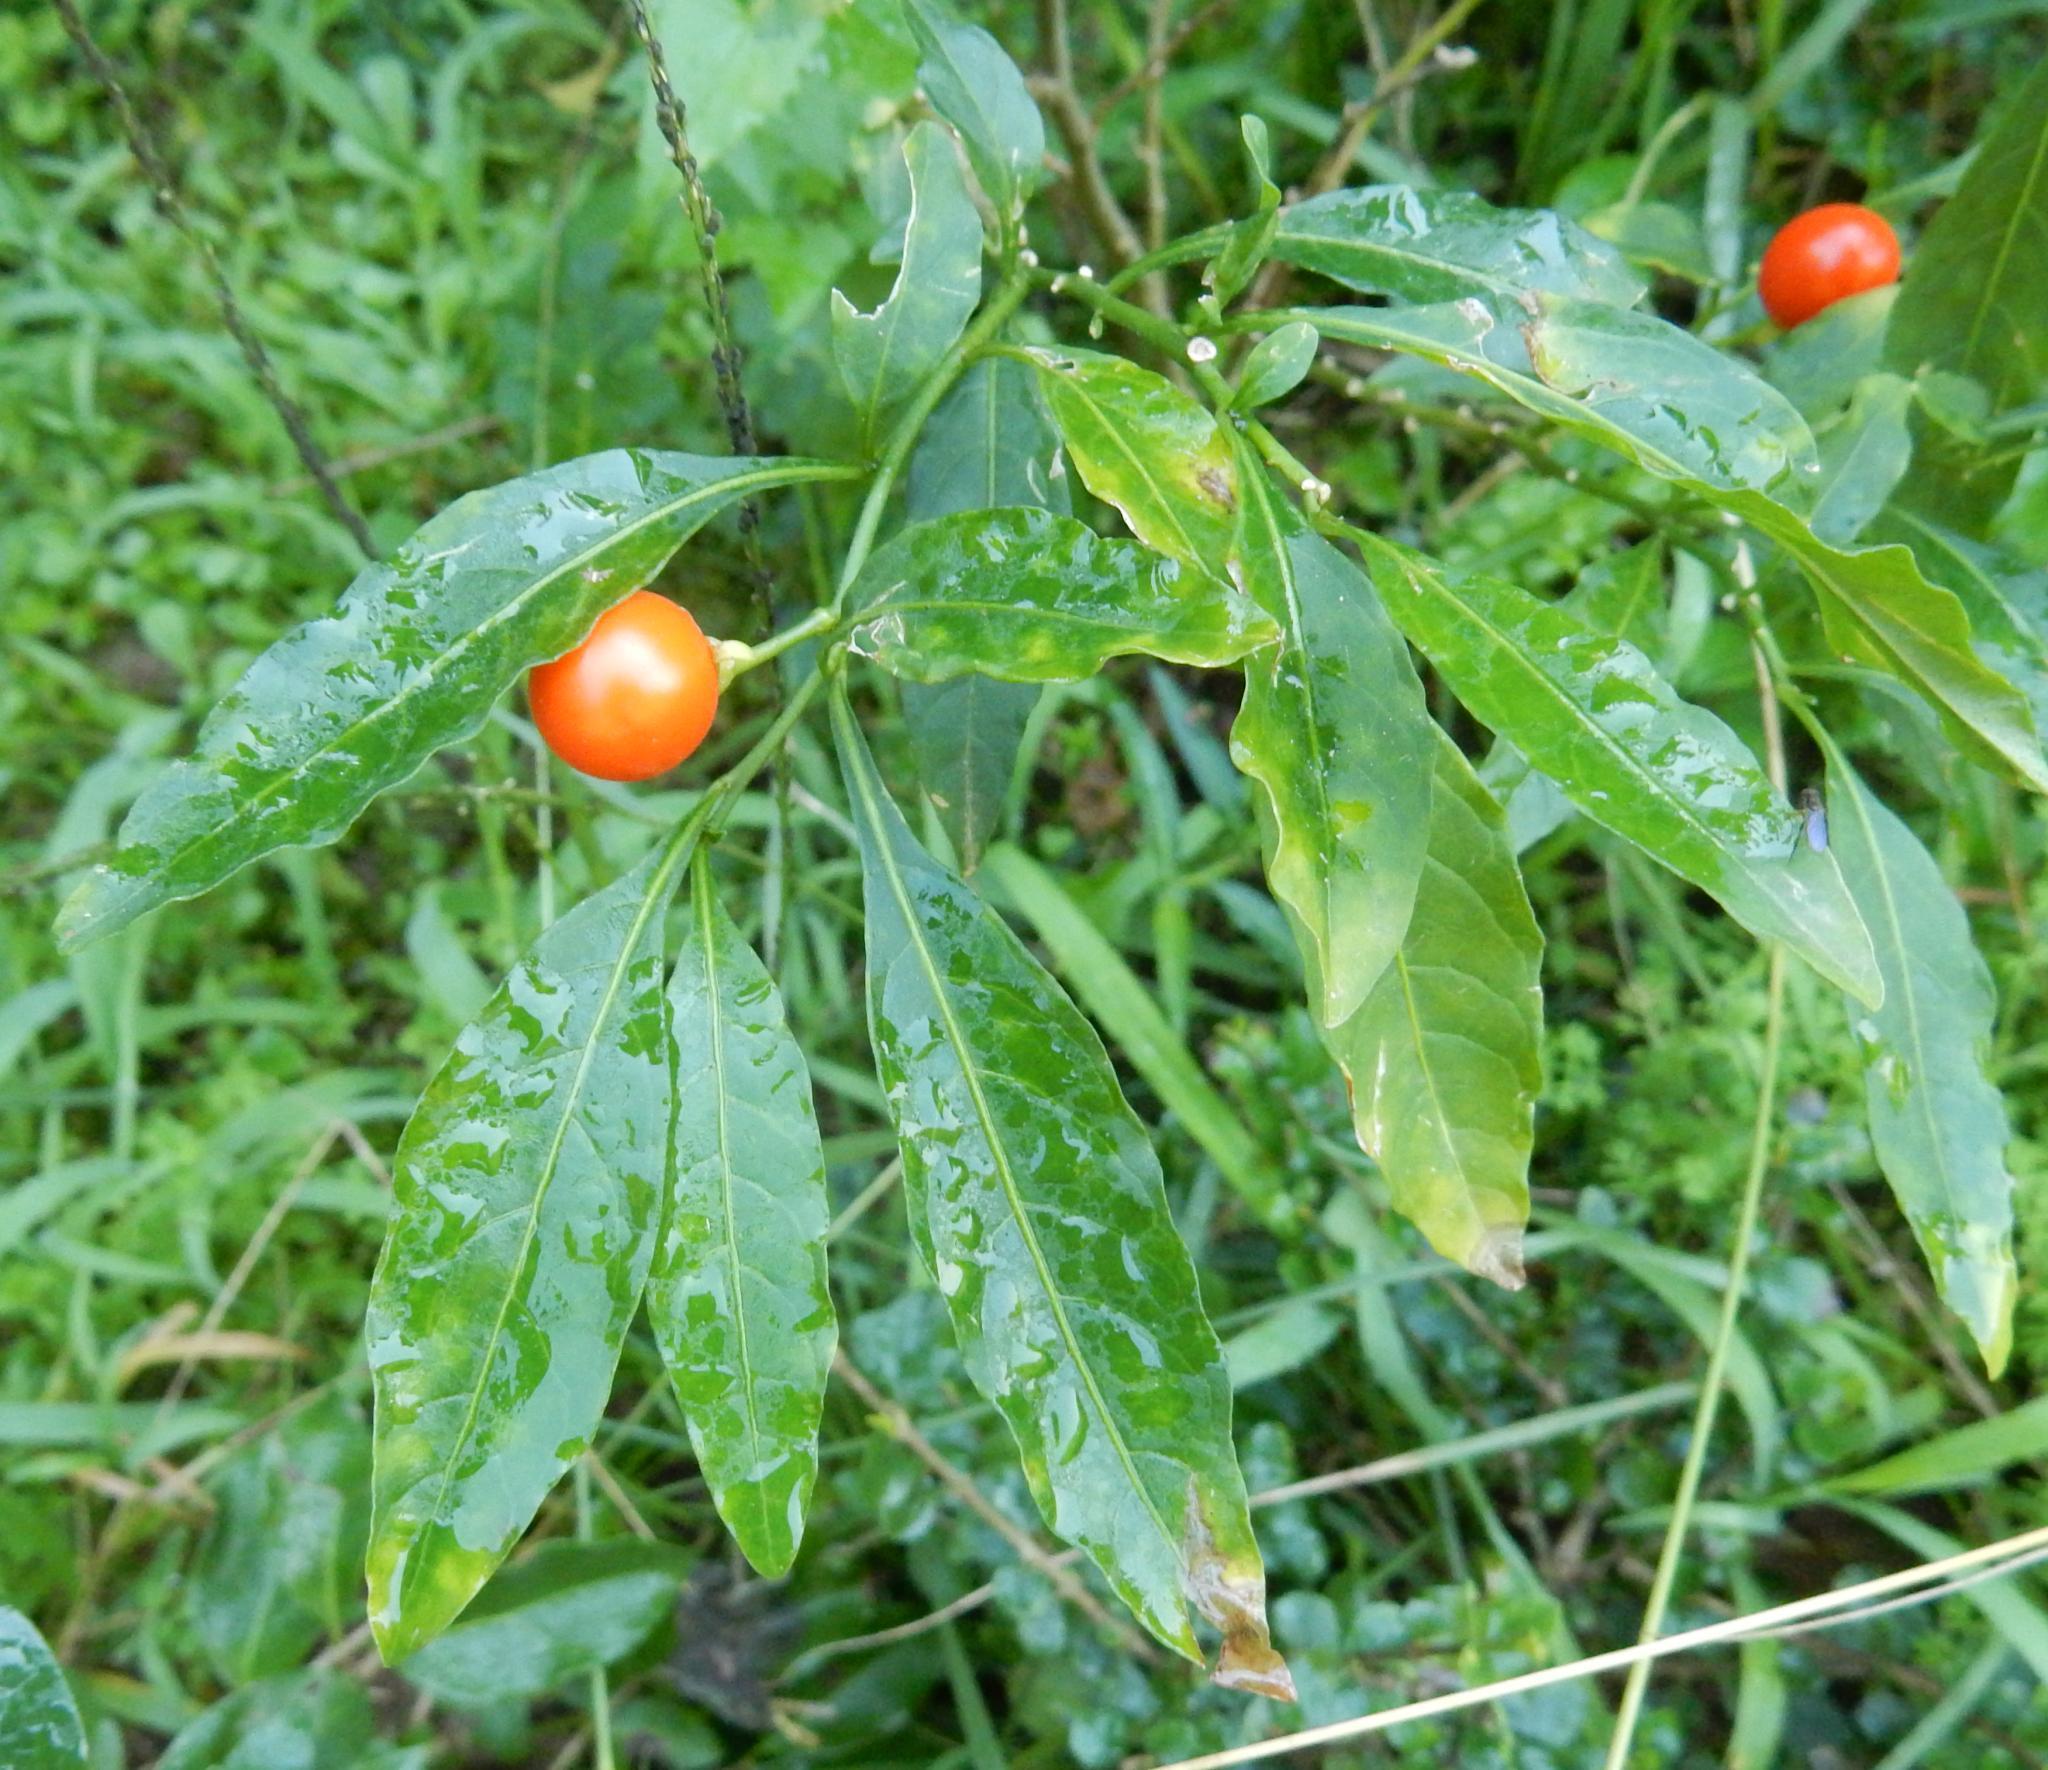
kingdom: Plantae
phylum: Tracheophyta
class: Magnoliopsida
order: Solanales
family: Solanaceae
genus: Solanum
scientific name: Solanum pseudocapsicum
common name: Jerusalem cherry
